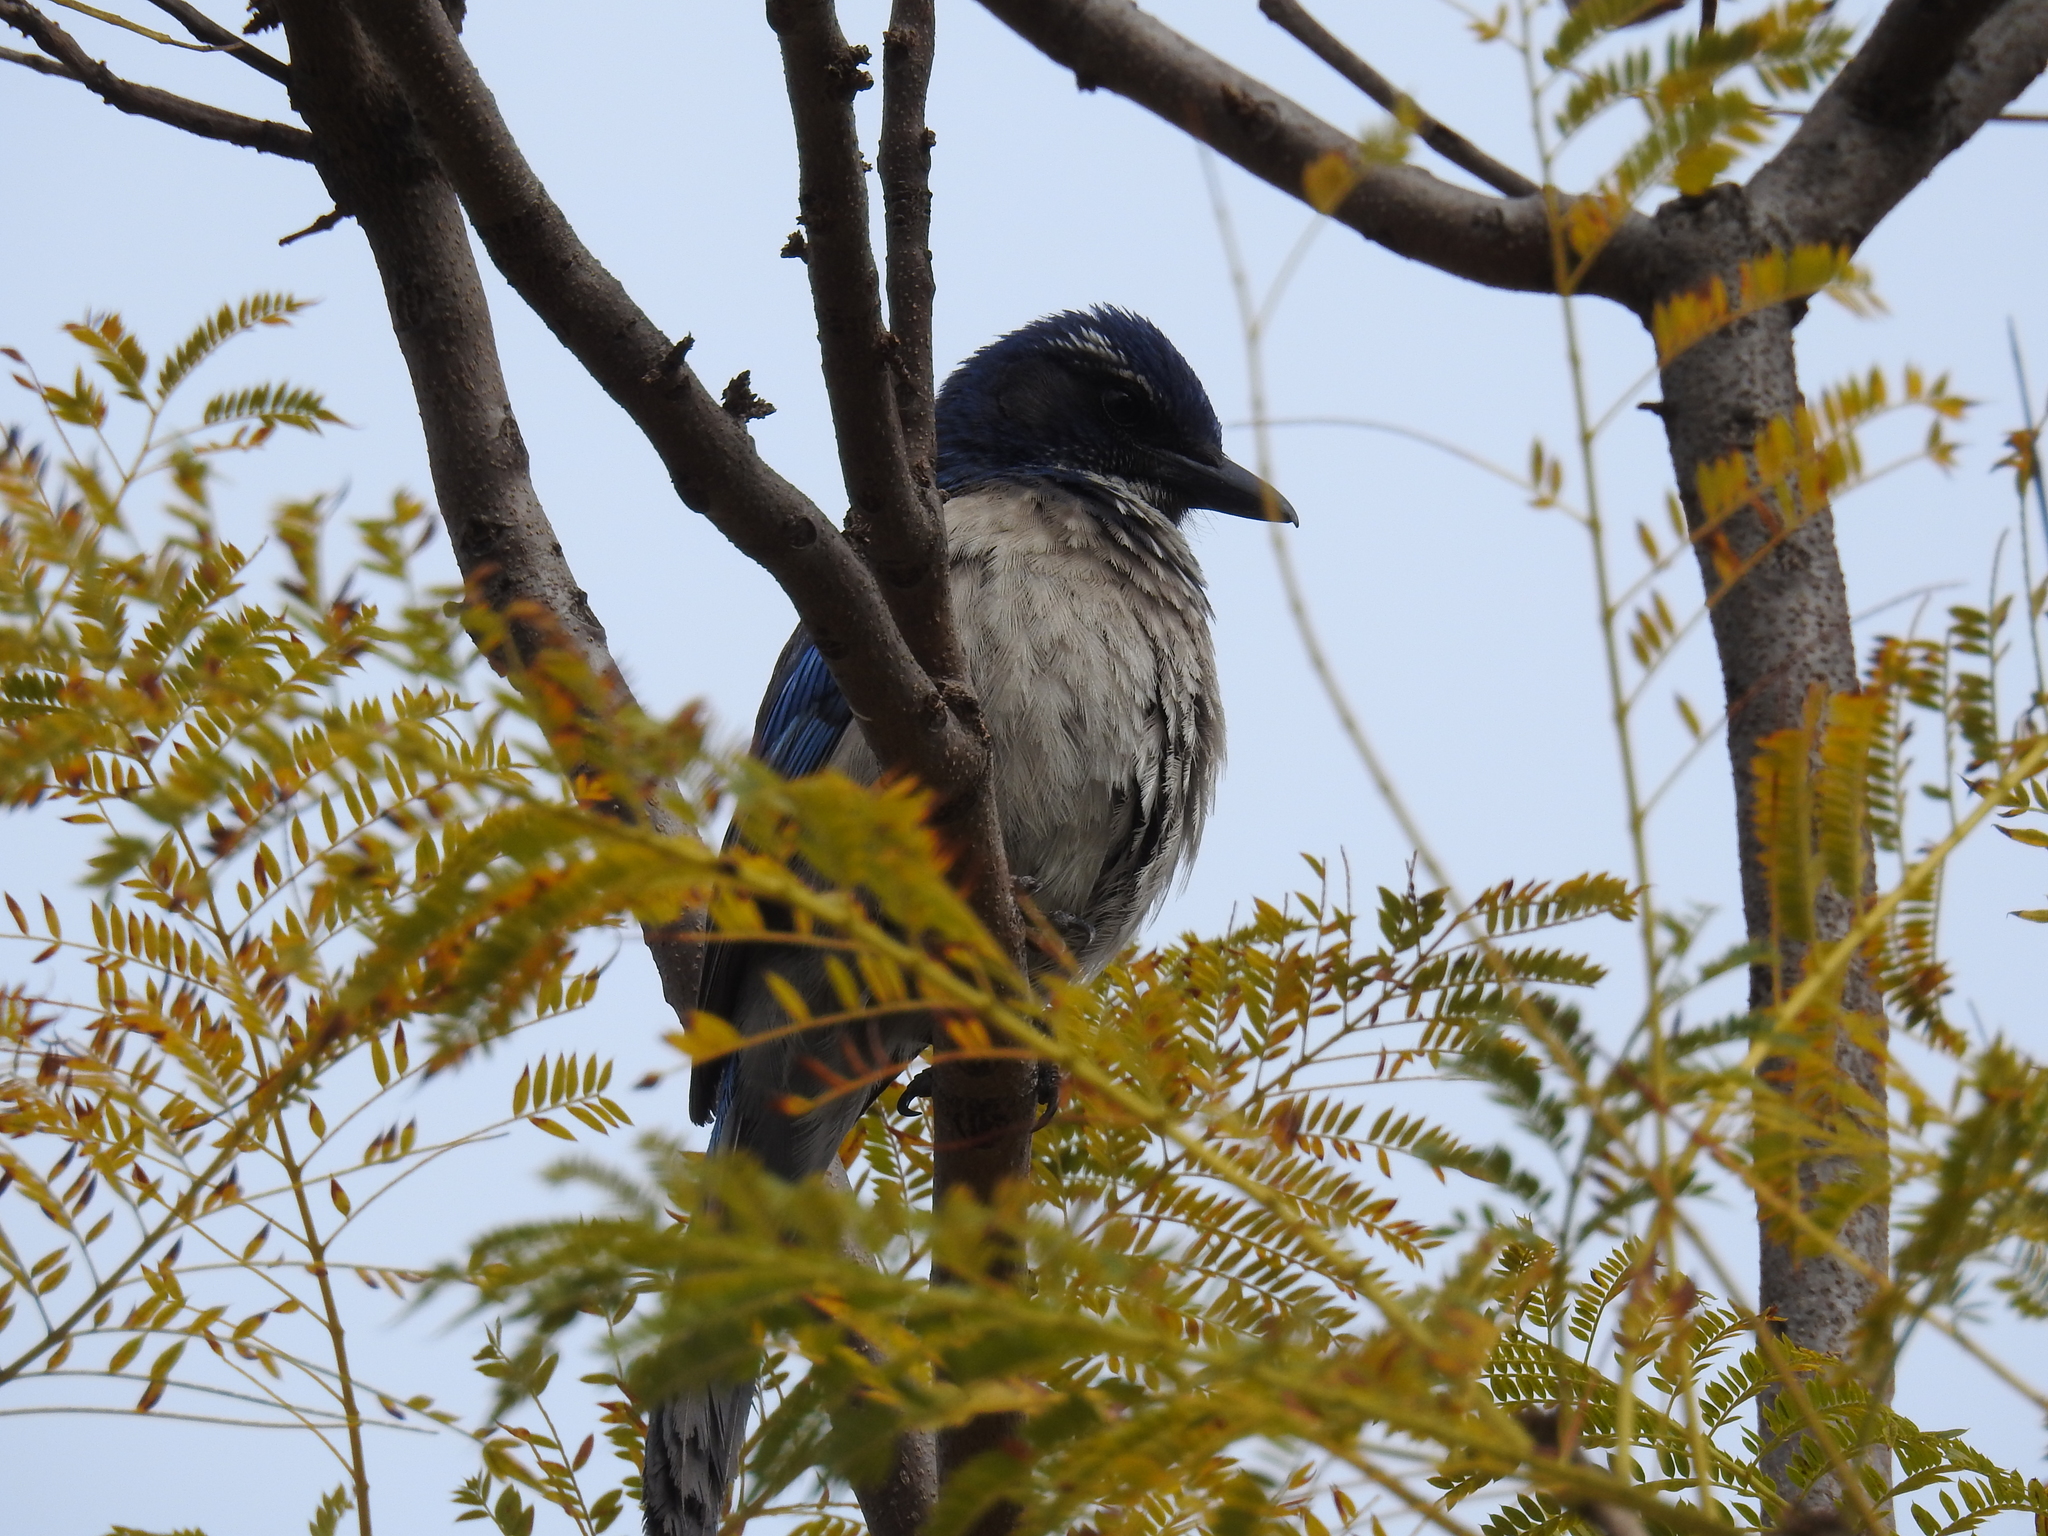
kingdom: Animalia
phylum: Chordata
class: Aves
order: Passeriformes
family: Corvidae
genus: Aphelocoma
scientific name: Aphelocoma californica
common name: California scrub-jay
